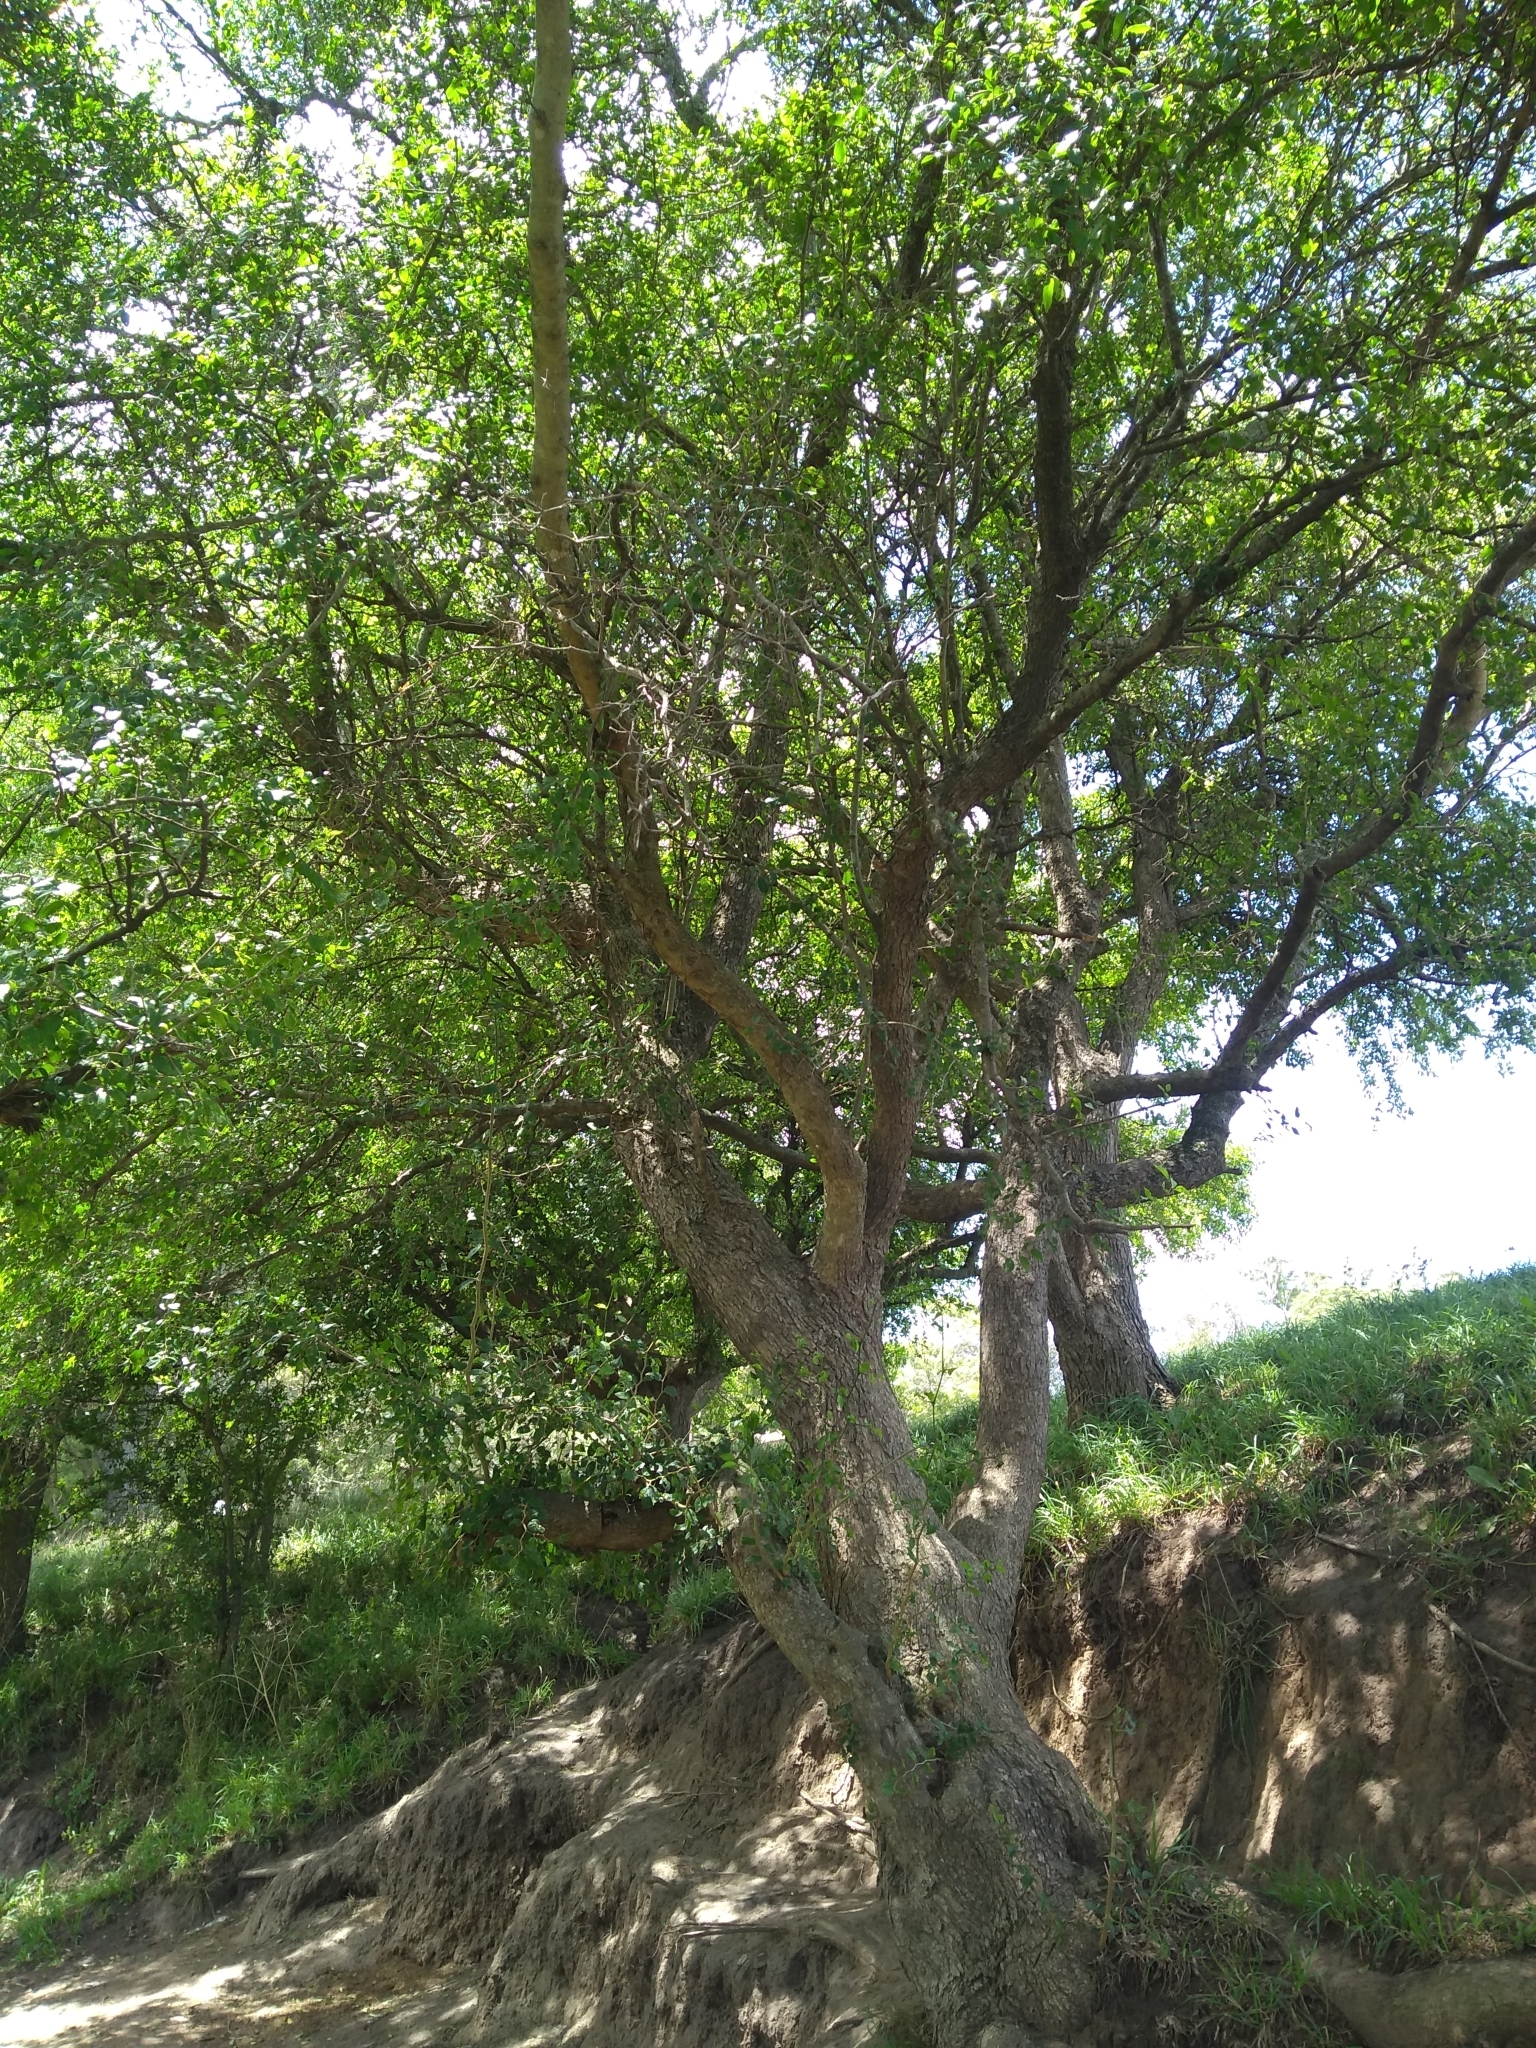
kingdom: Plantae
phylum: Tracheophyta
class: Magnoliopsida
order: Rosales
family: Cannabaceae
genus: Celtis
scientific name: Celtis tala
